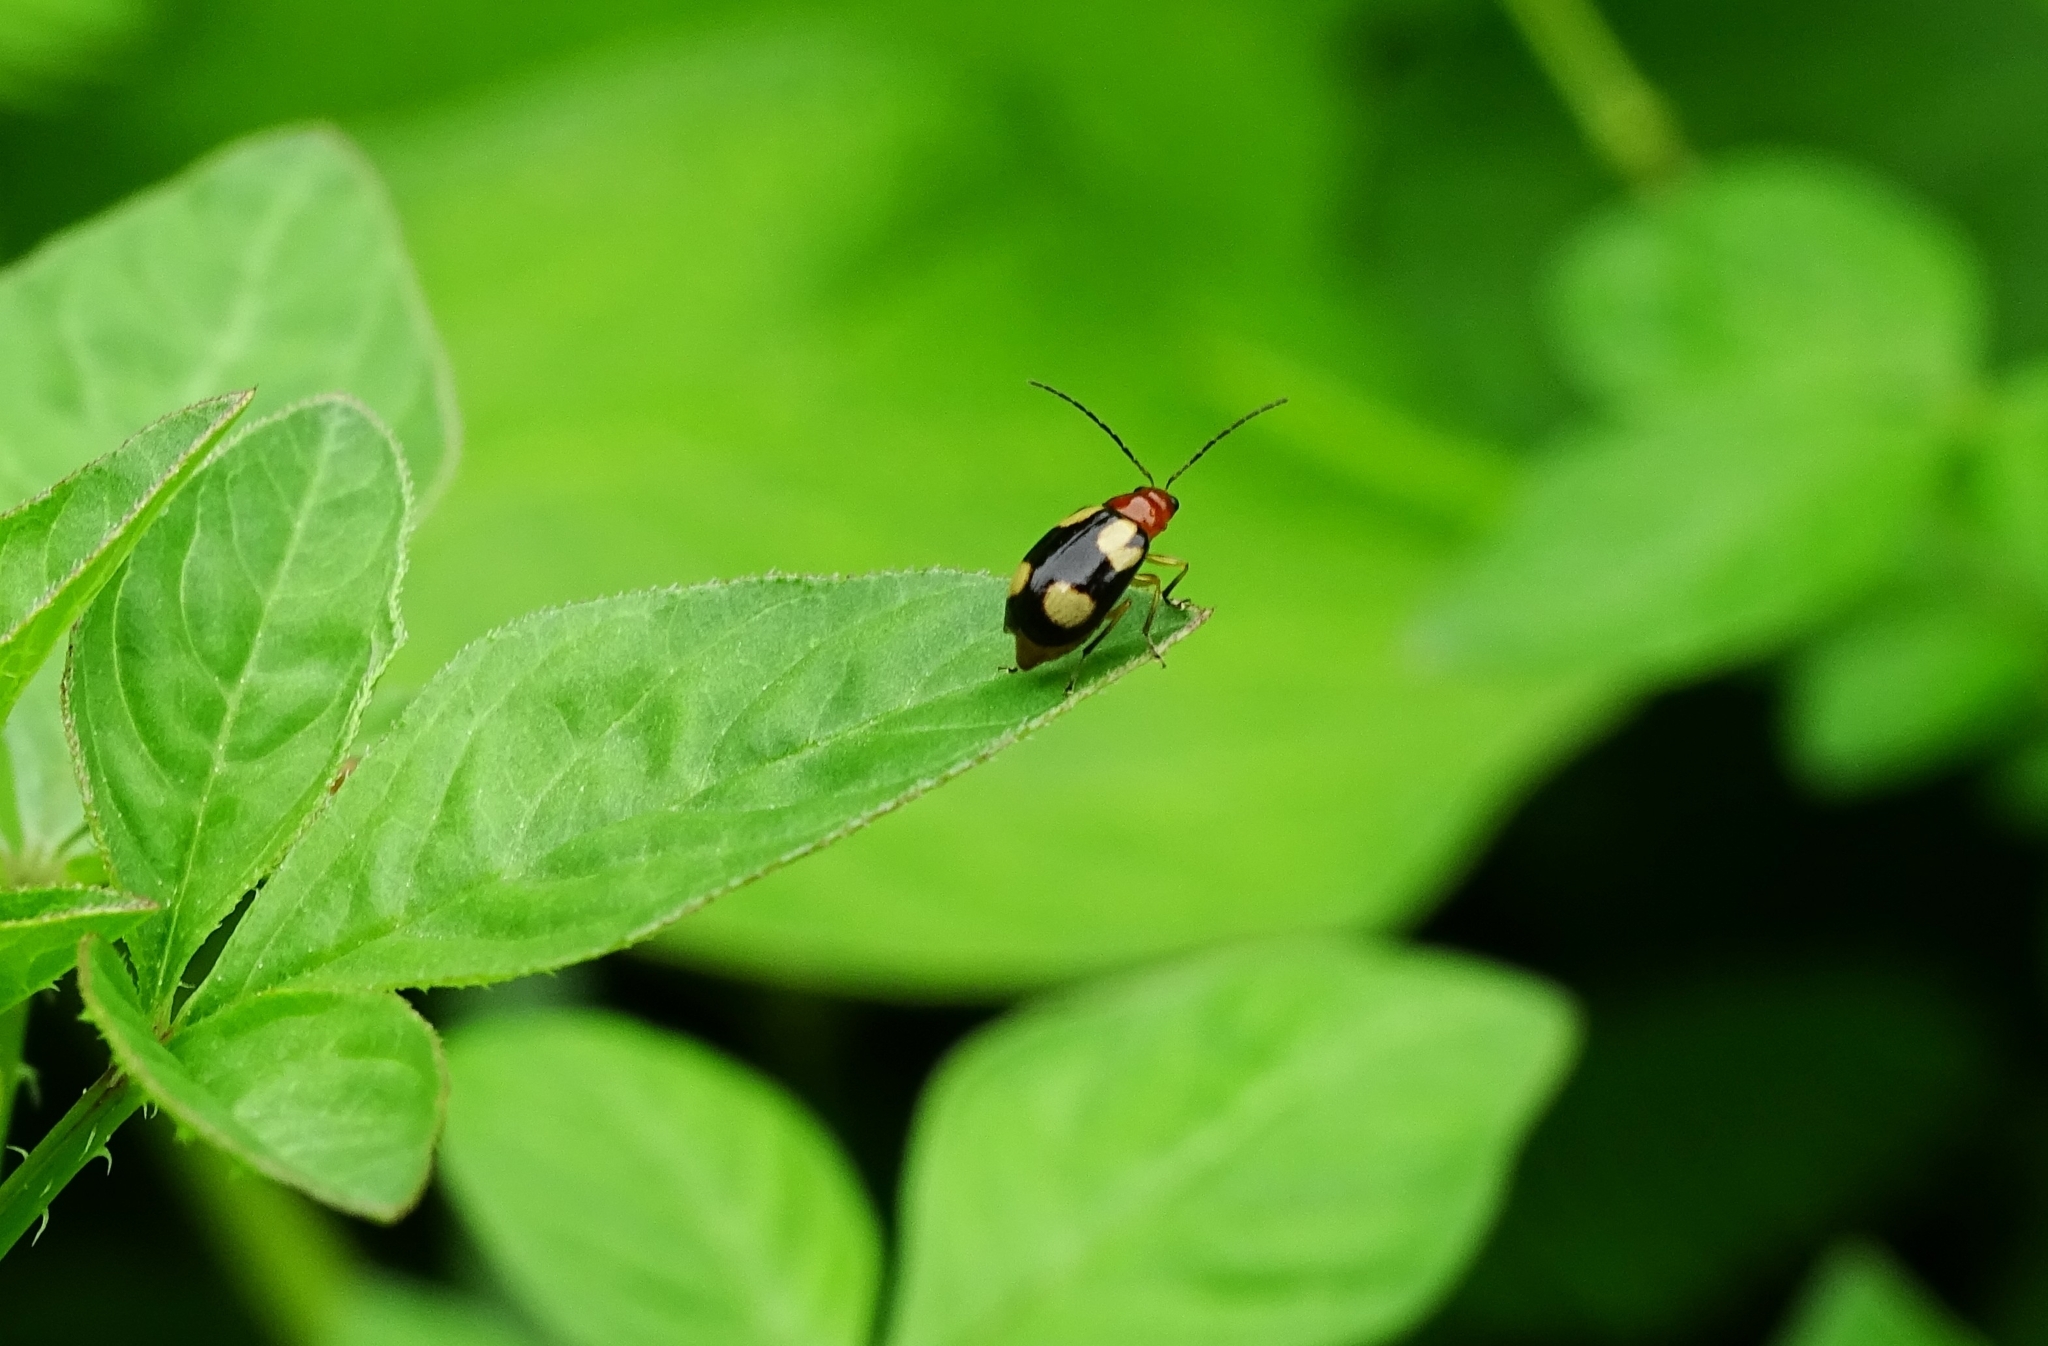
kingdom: Animalia
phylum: Arthropoda
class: Insecta
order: Coleoptera
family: Chrysomelidae
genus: Monolepta
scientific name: Monolepta signata
